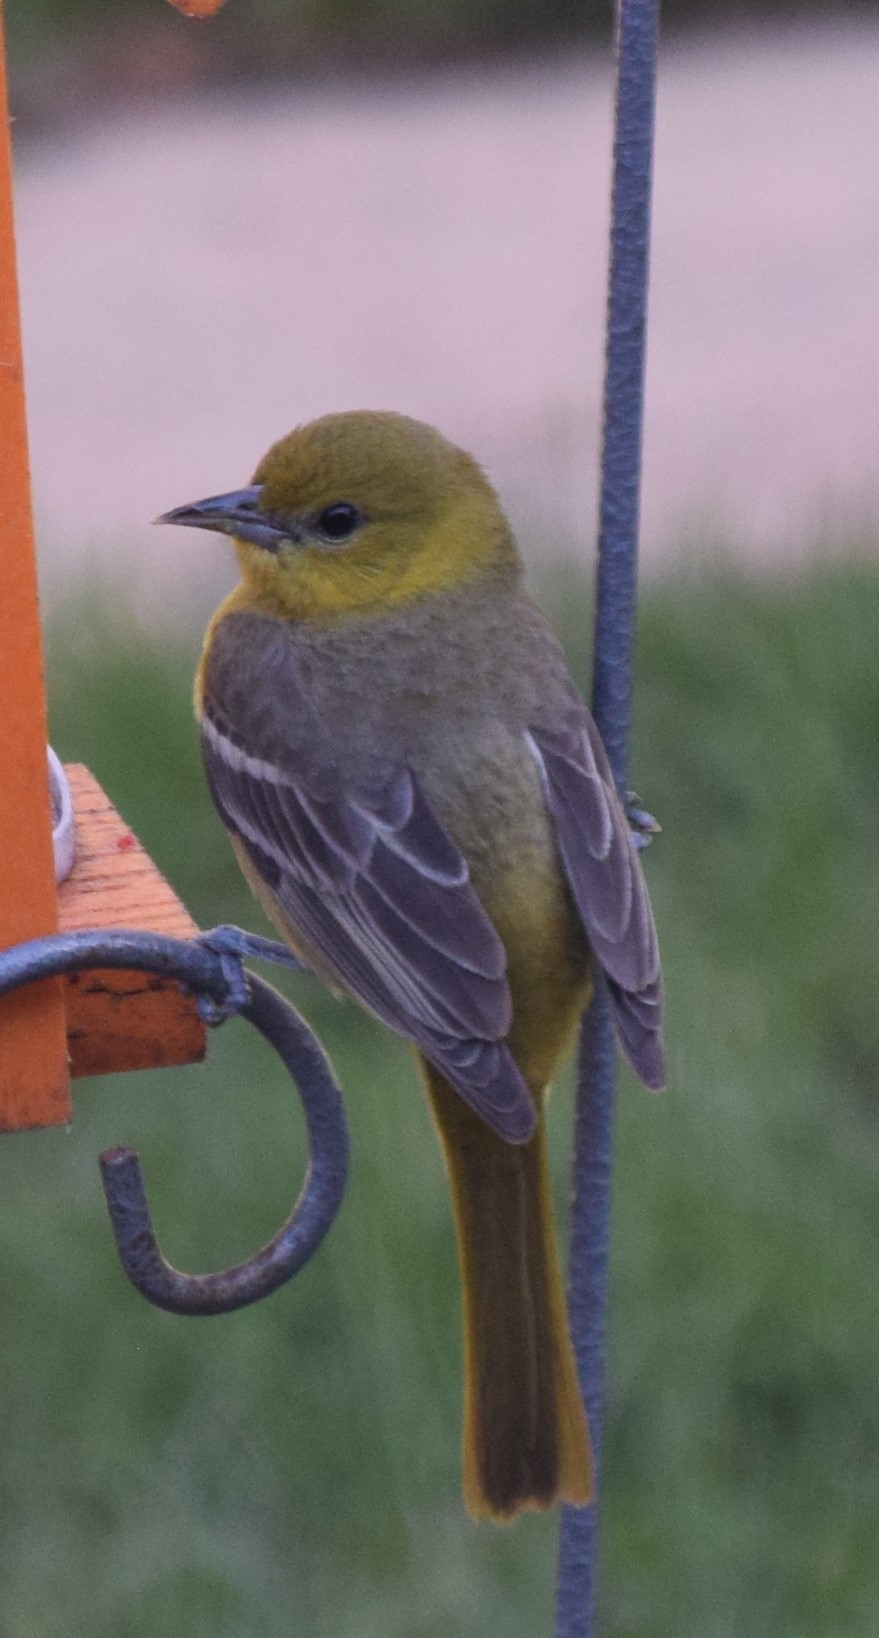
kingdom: Animalia
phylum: Chordata
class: Aves
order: Passeriformes
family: Icteridae
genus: Icterus
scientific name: Icterus galbula
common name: Baltimore oriole
